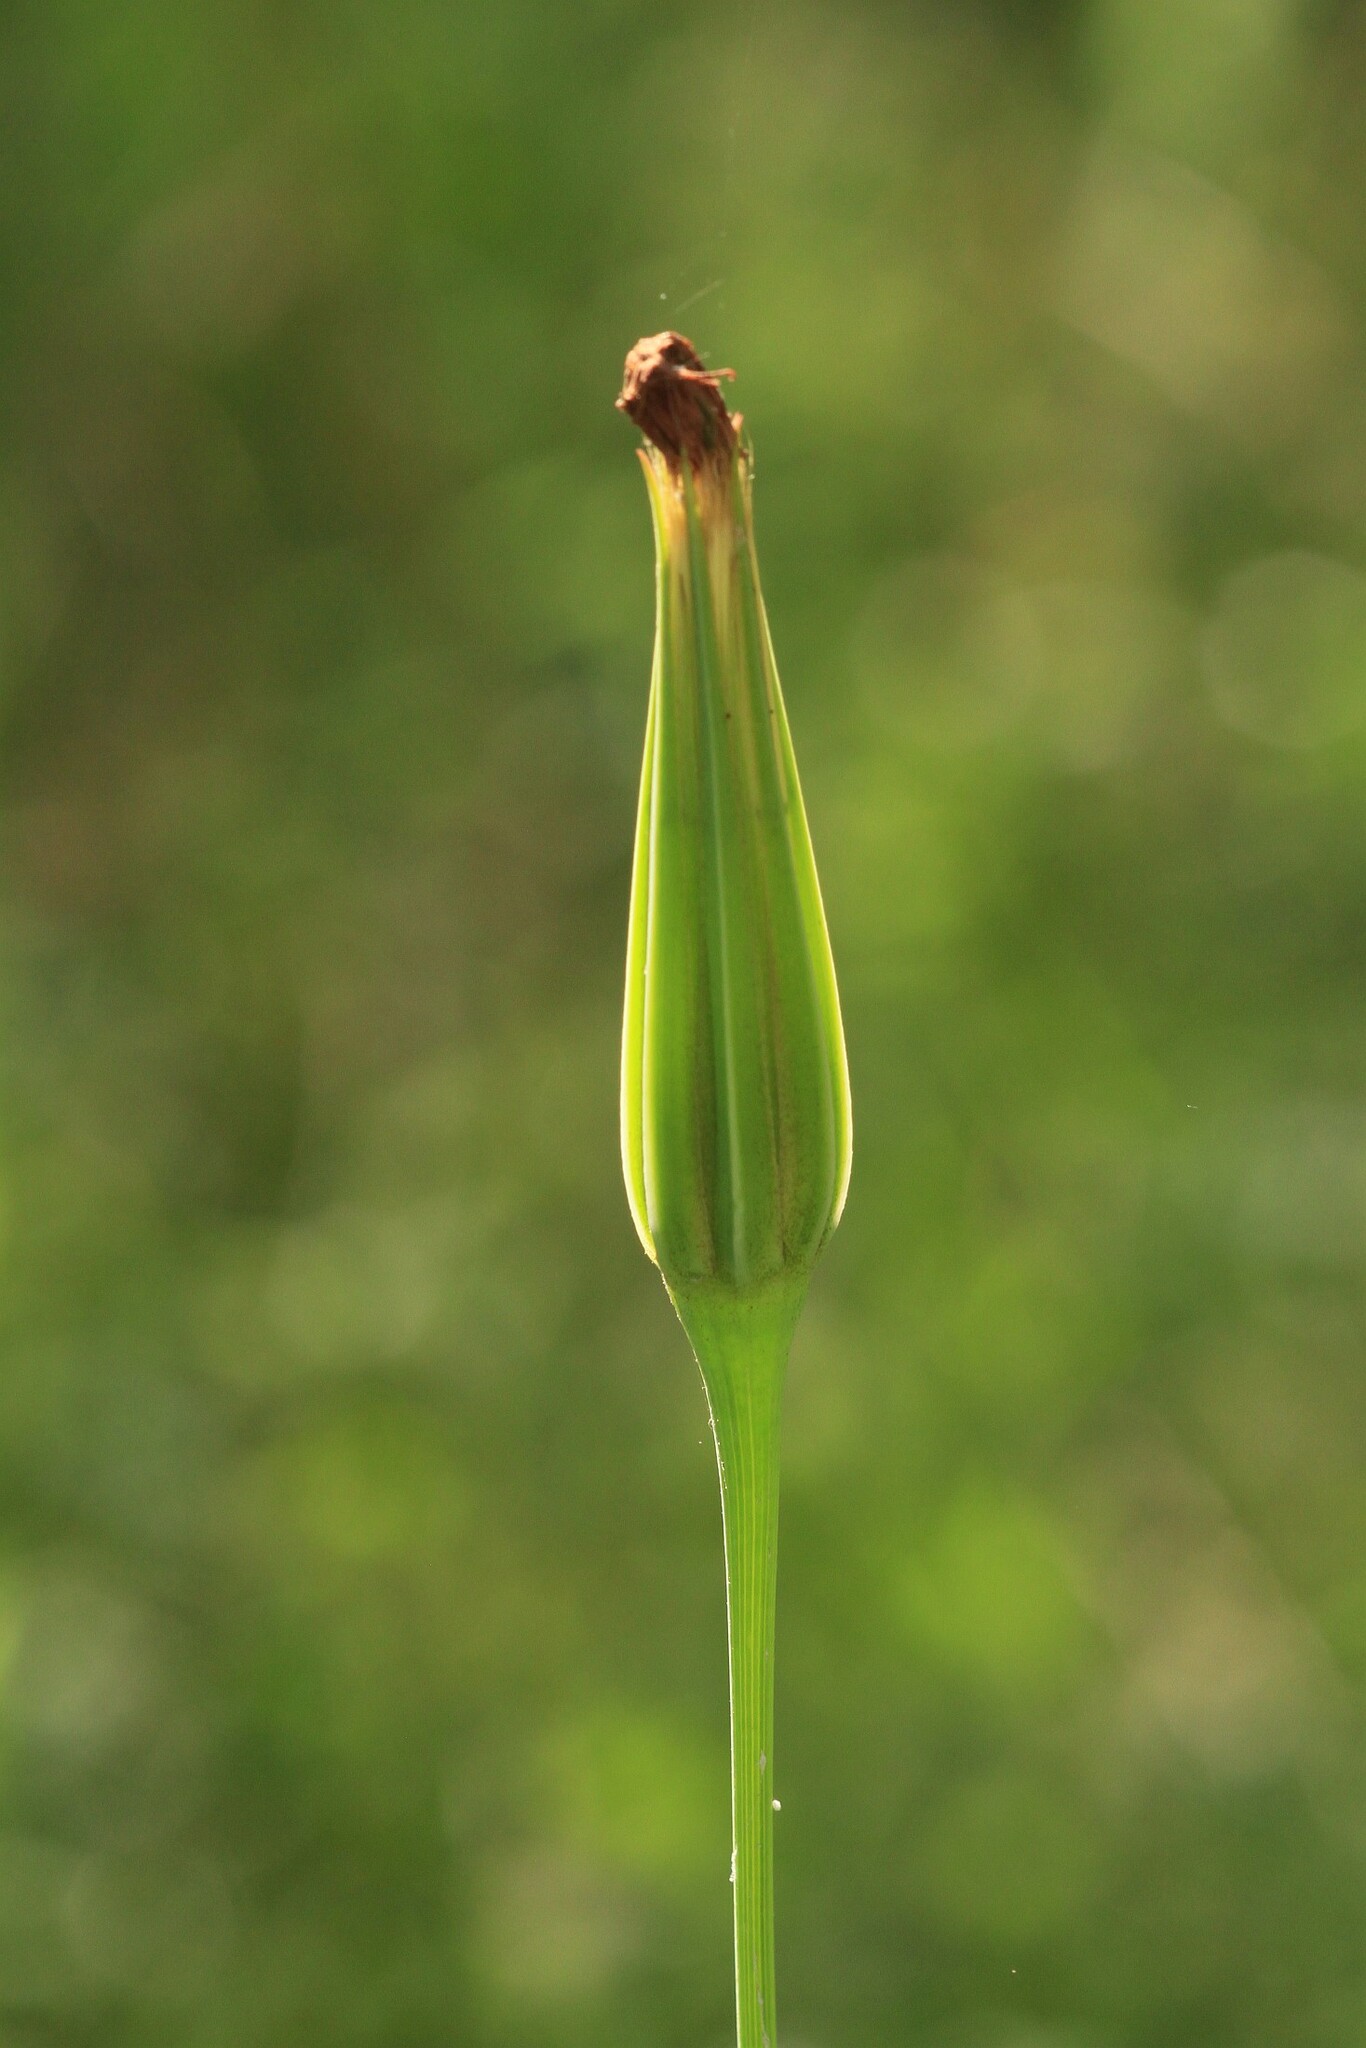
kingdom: Plantae
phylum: Tracheophyta
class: Magnoliopsida
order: Asterales
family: Asteraceae
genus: Tragopogon
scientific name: Tragopogon porrifolius
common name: Salsify
